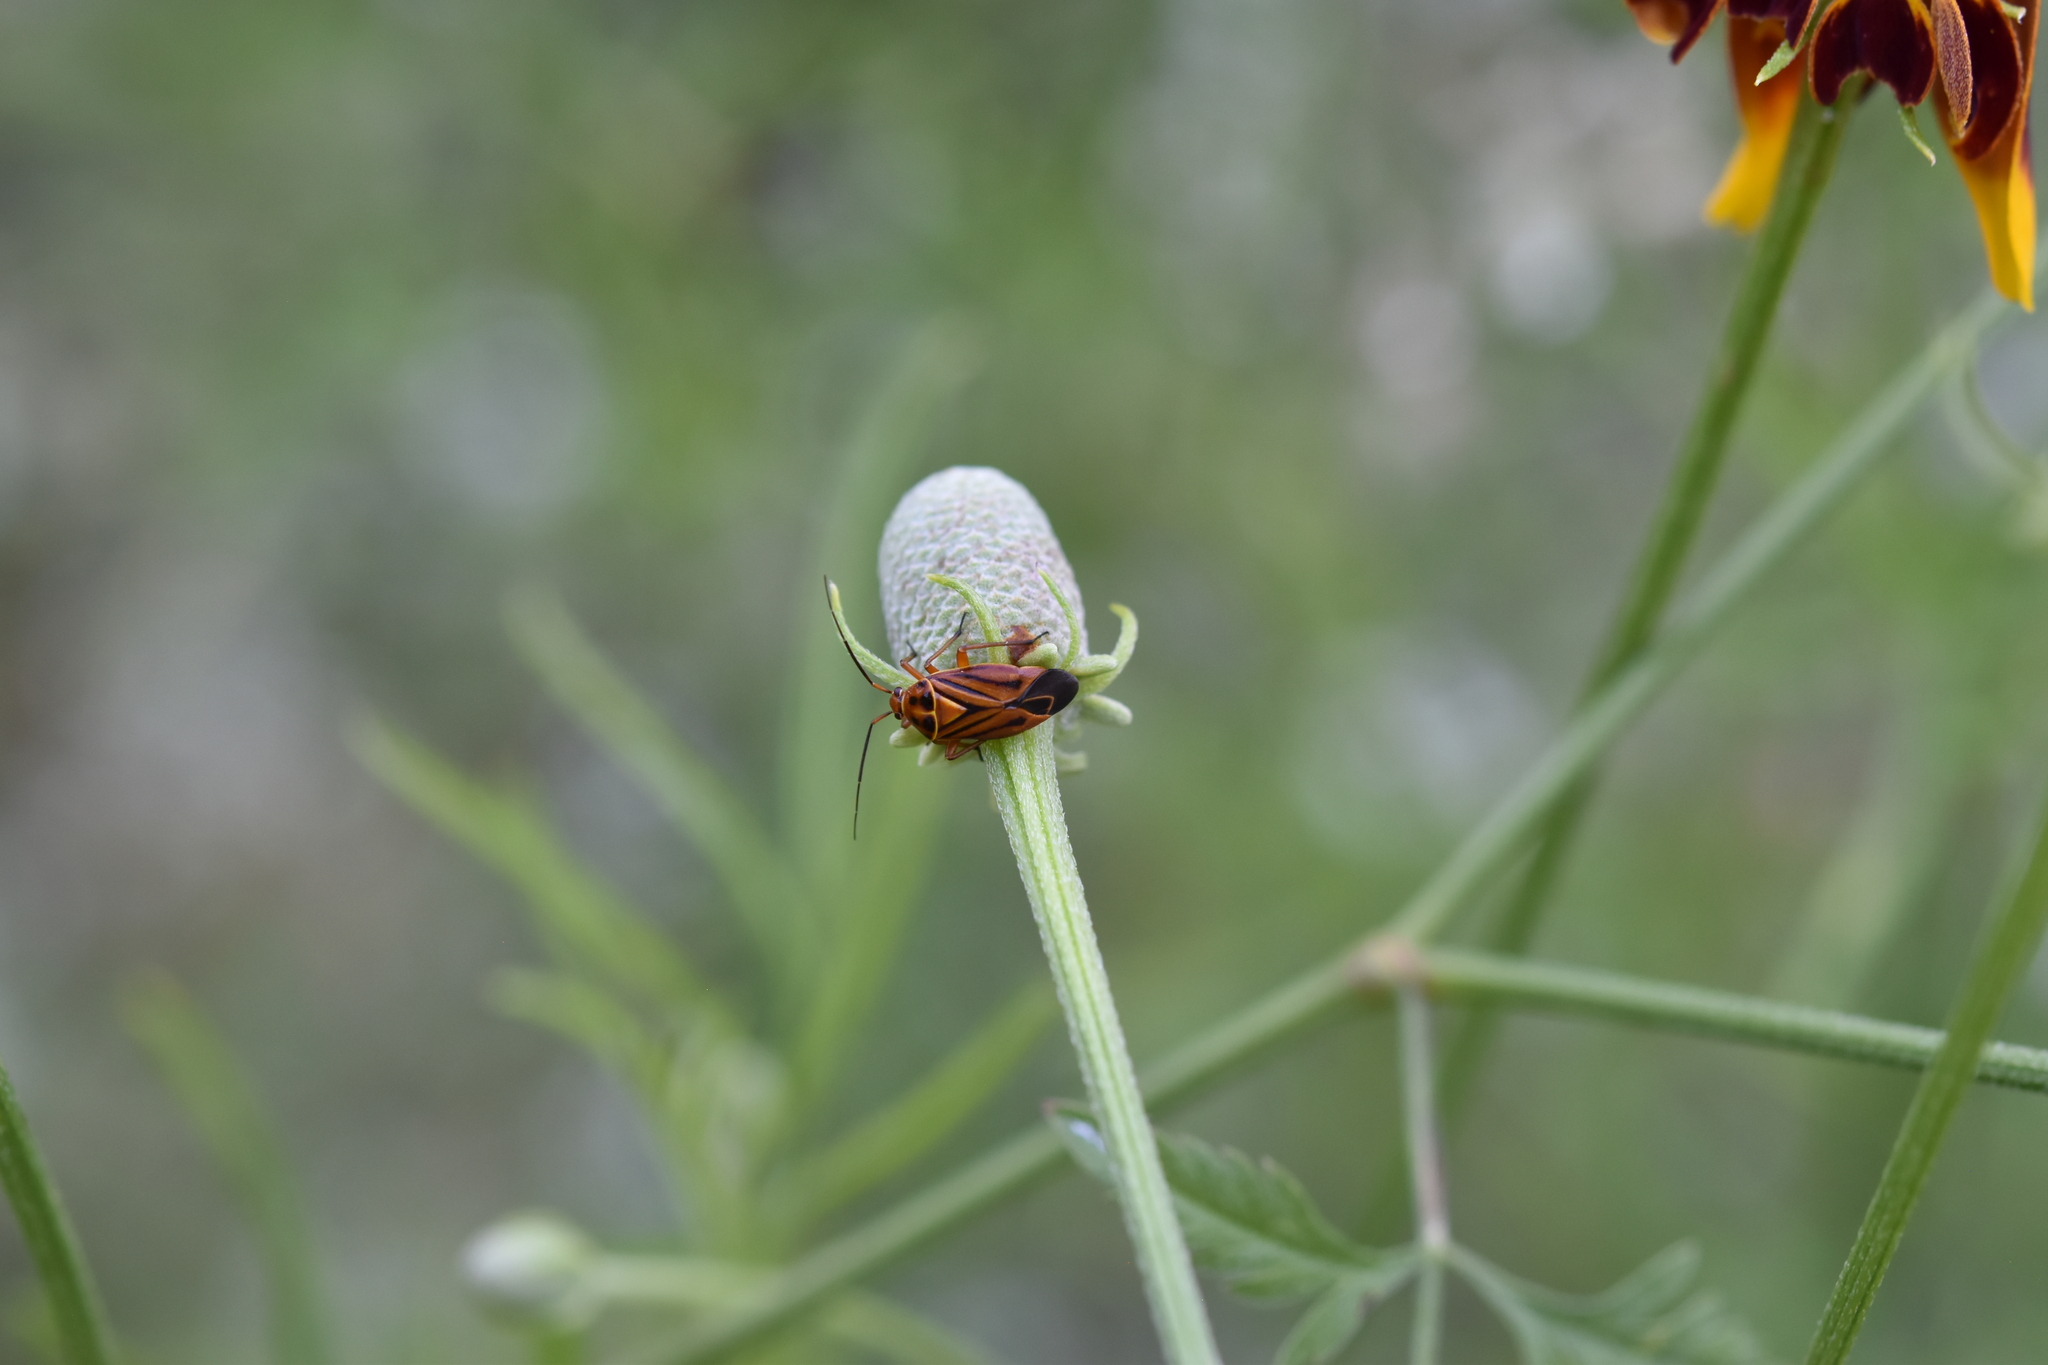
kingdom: Animalia
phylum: Arthropoda
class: Insecta
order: Hemiptera
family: Miridae
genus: Calocoris
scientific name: Calocoris barberi
